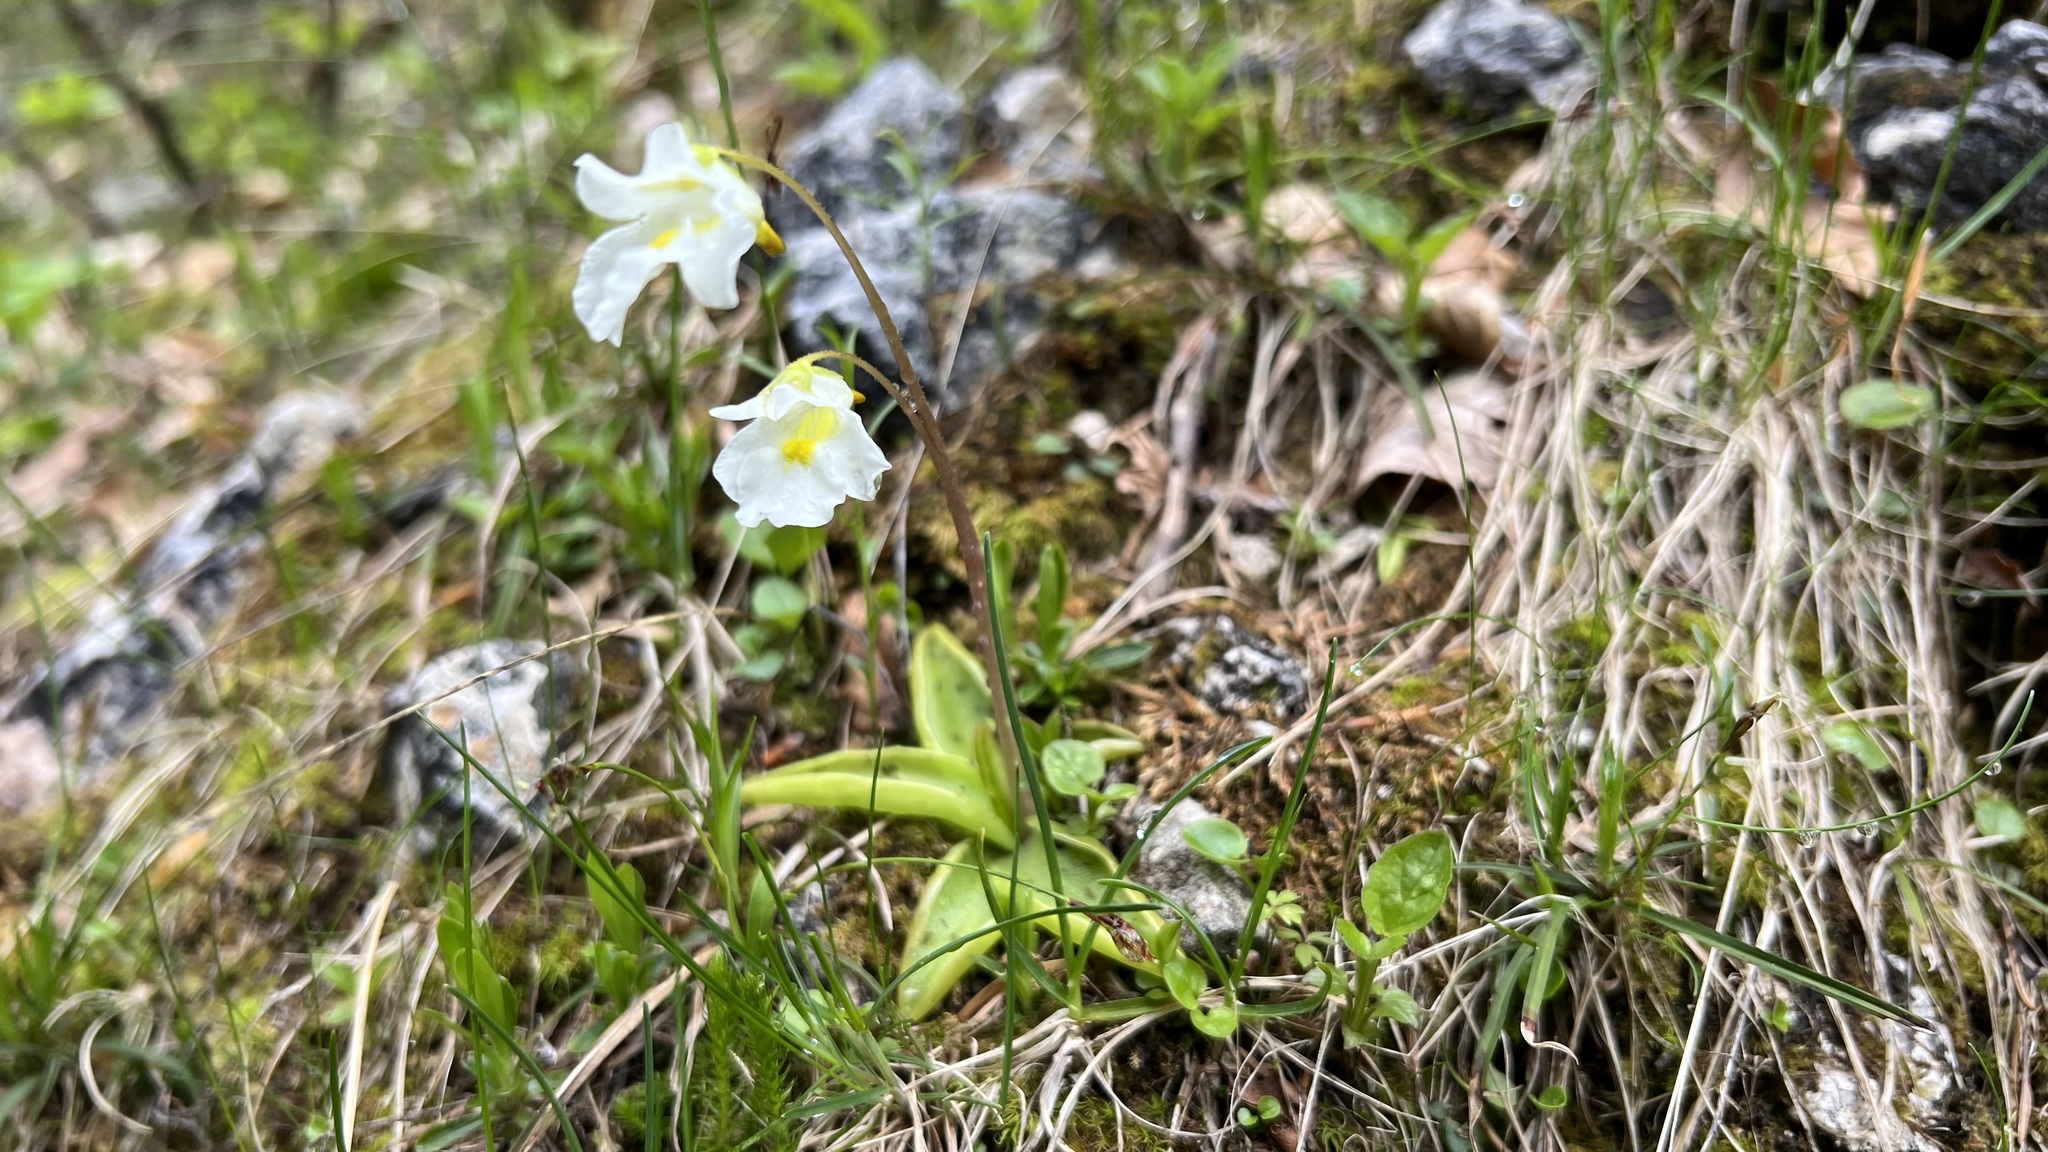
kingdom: Plantae
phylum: Tracheophyta
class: Magnoliopsida
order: Lamiales
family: Lentibulariaceae
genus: Pinguicula
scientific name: Pinguicula alpina
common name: Alpine butterwort
